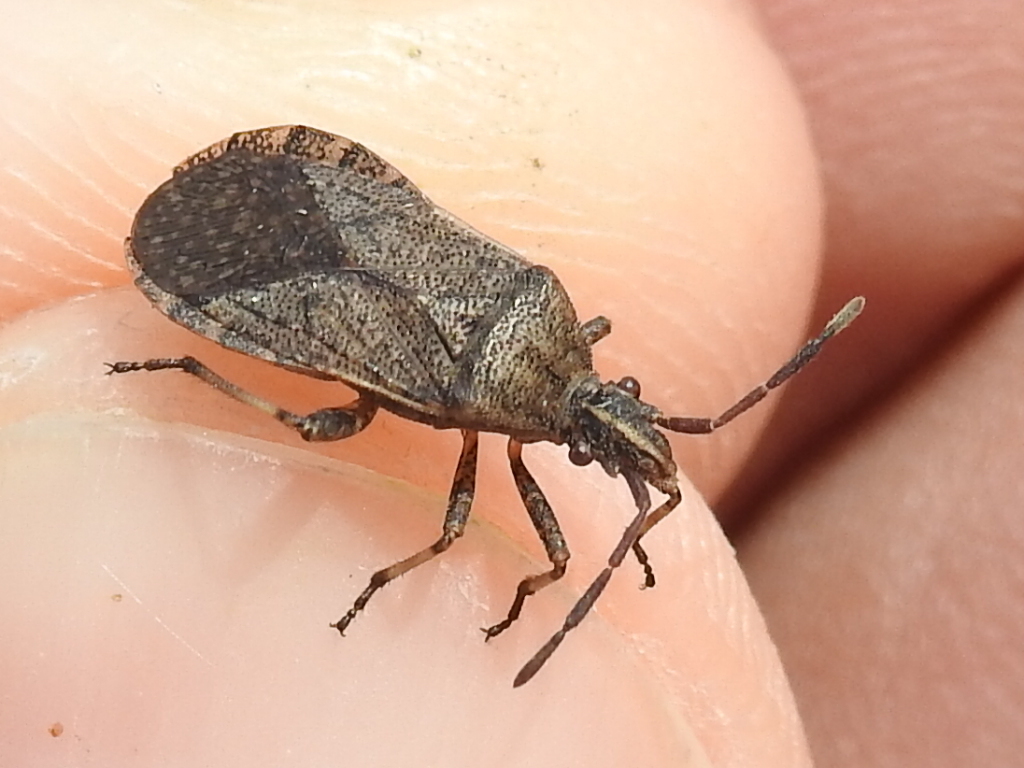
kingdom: Animalia
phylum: Arthropoda
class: Insecta
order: Hemiptera
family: Coreidae
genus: Ceraleptus
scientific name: Ceraleptus americanus
